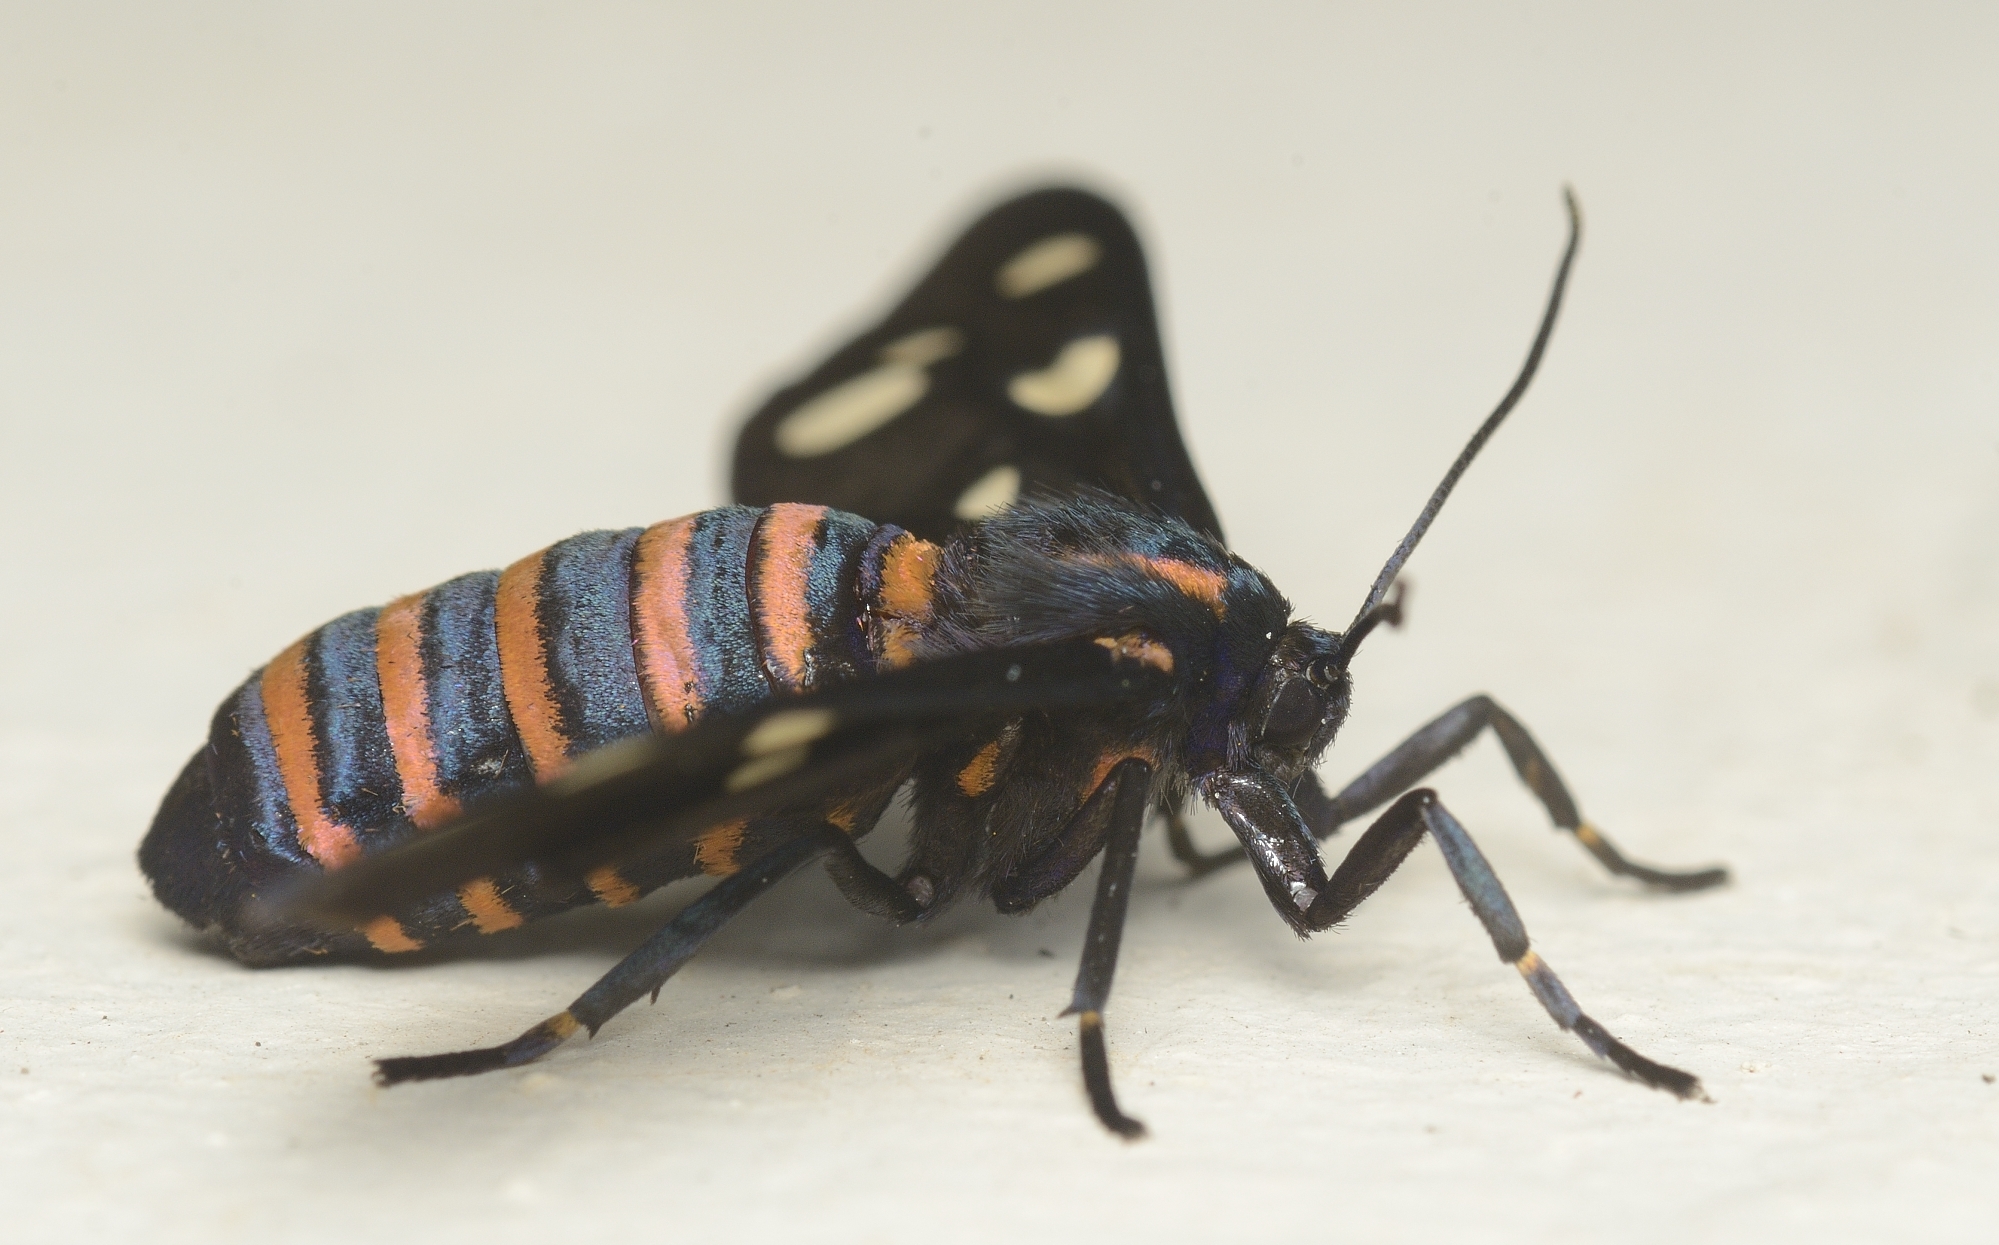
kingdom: Animalia
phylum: Arthropoda
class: Insecta
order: Lepidoptera
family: Erebidae
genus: Amata
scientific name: Amata passalis
